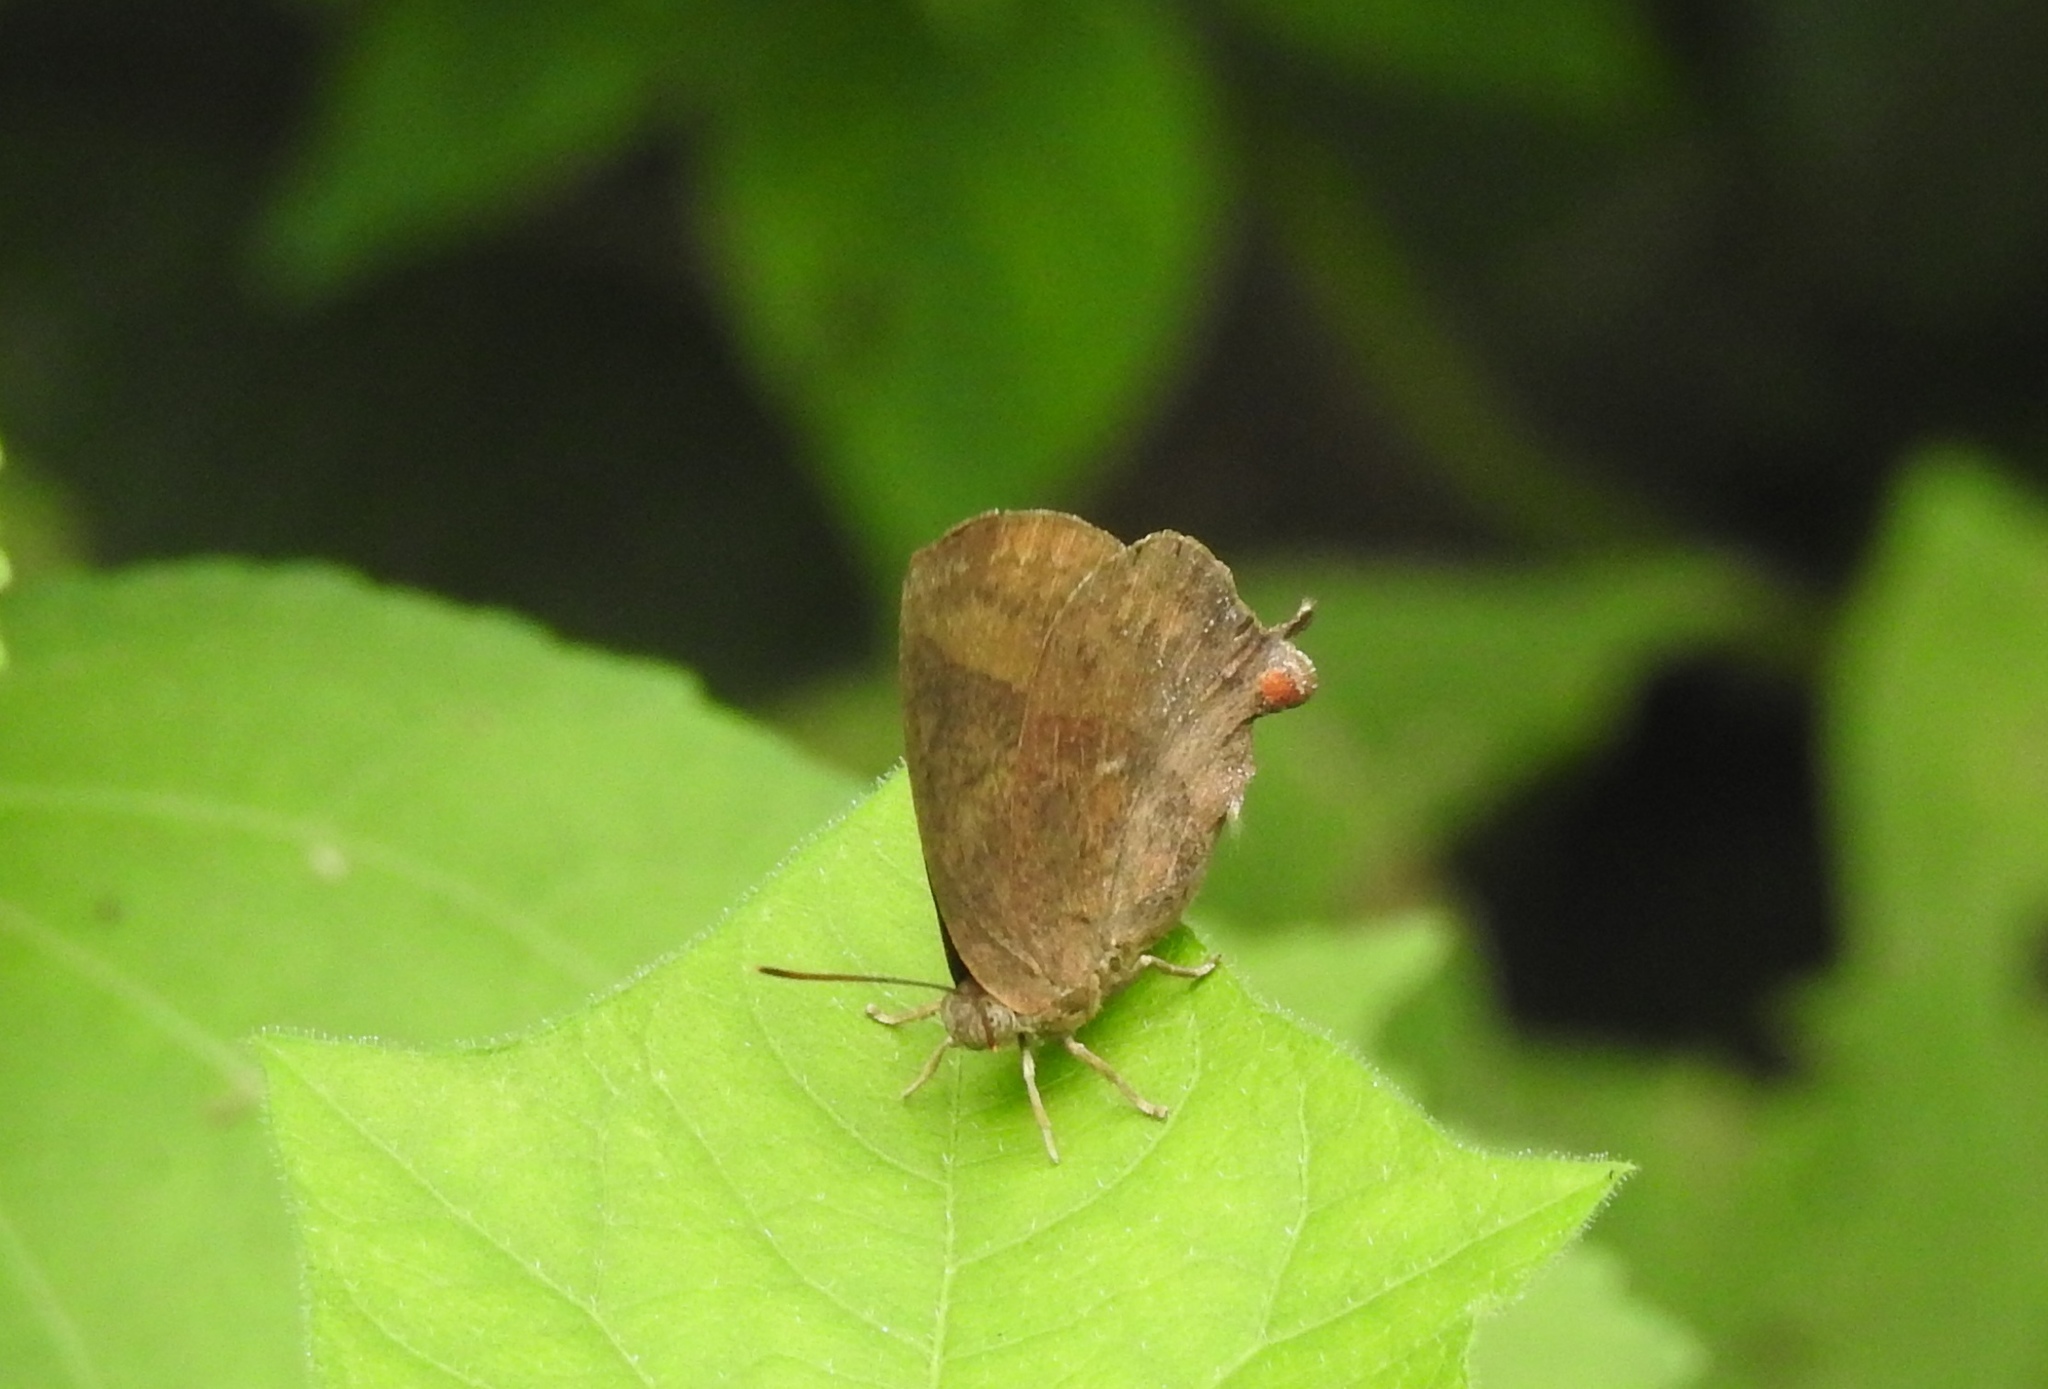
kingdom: Animalia
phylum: Arthropoda
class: Insecta
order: Lepidoptera
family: Lycaenidae
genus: Amblypodia
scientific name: Amblypodia anita
